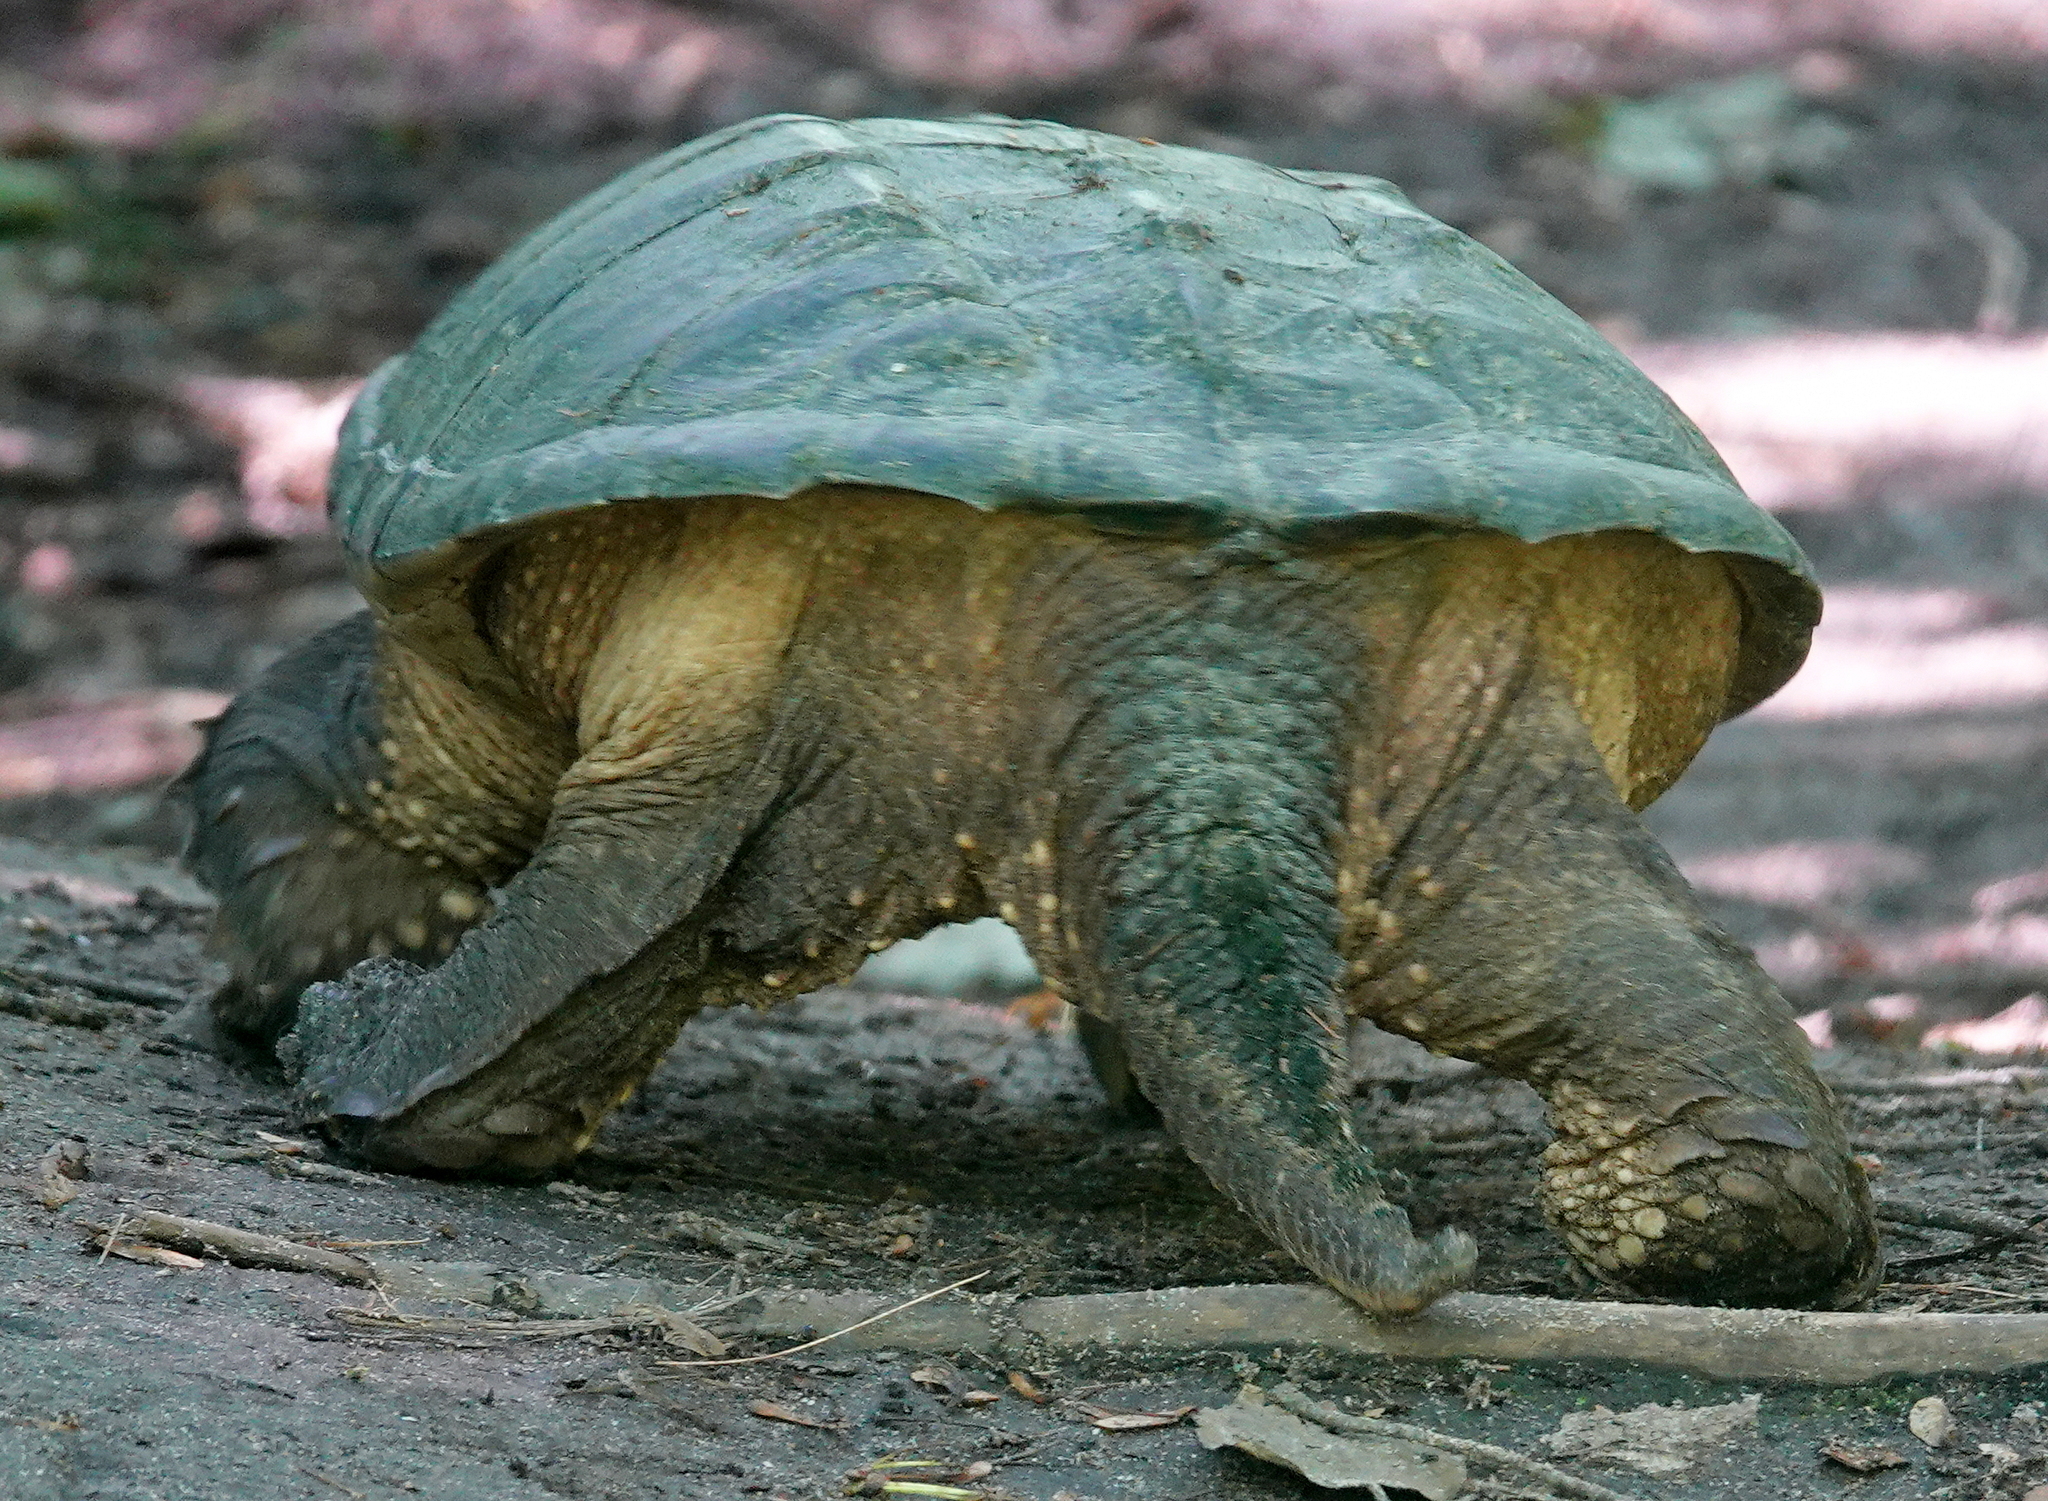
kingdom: Animalia
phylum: Chordata
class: Testudines
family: Chelydridae
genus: Chelydra
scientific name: Chelydra serpentina
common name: Common snapping turtle
